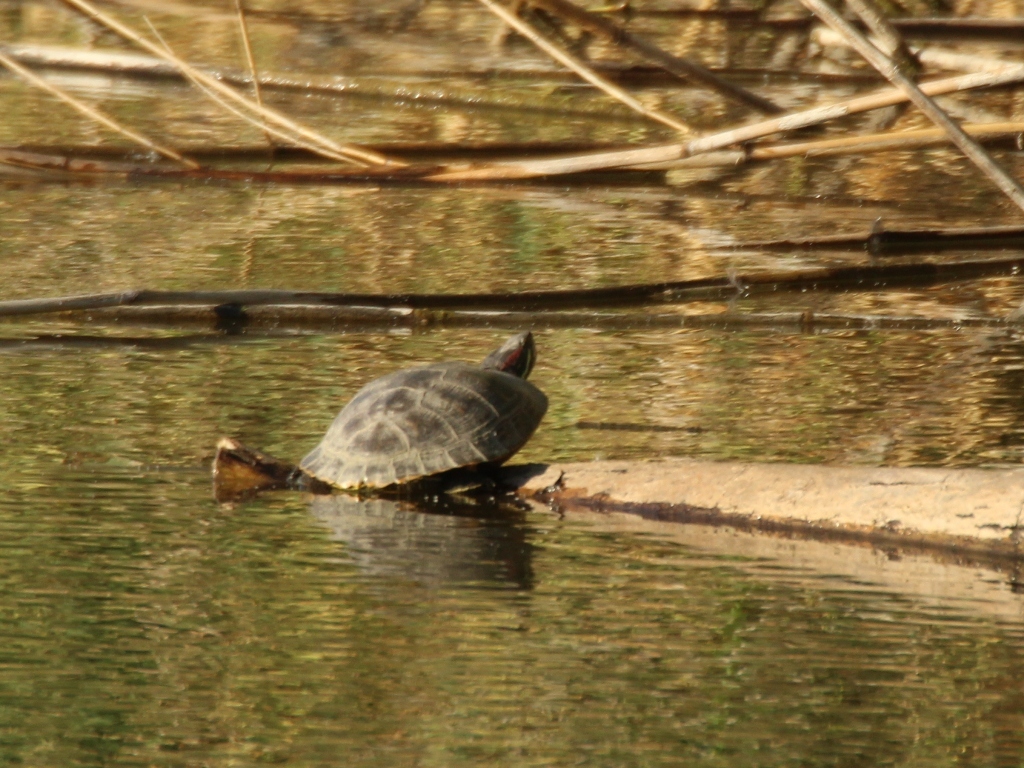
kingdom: Animalia
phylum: Chordata
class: Testudines
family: Emydidae
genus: Trachemys
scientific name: Trachemys scripta
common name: Slider
